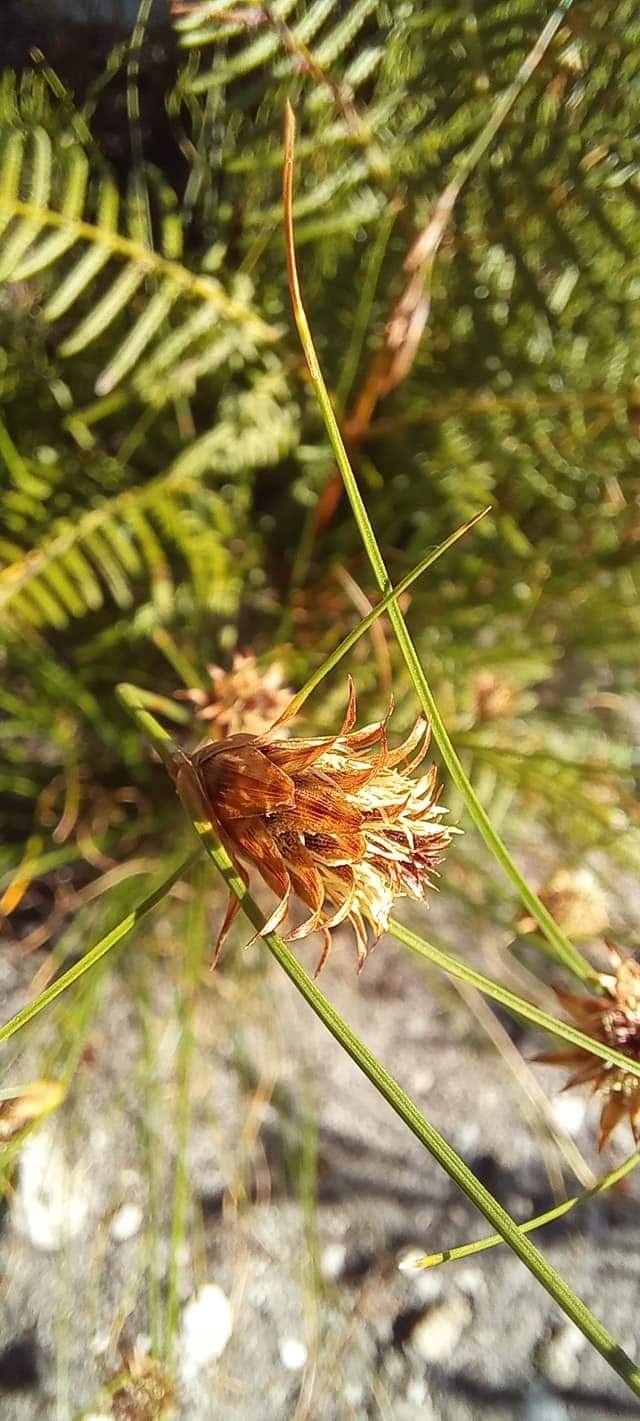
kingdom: Plantae
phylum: Tracheophyta
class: Liliopsida
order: Poales
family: Cyperaceae
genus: Ficinia
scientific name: Ficinia nigrescens
